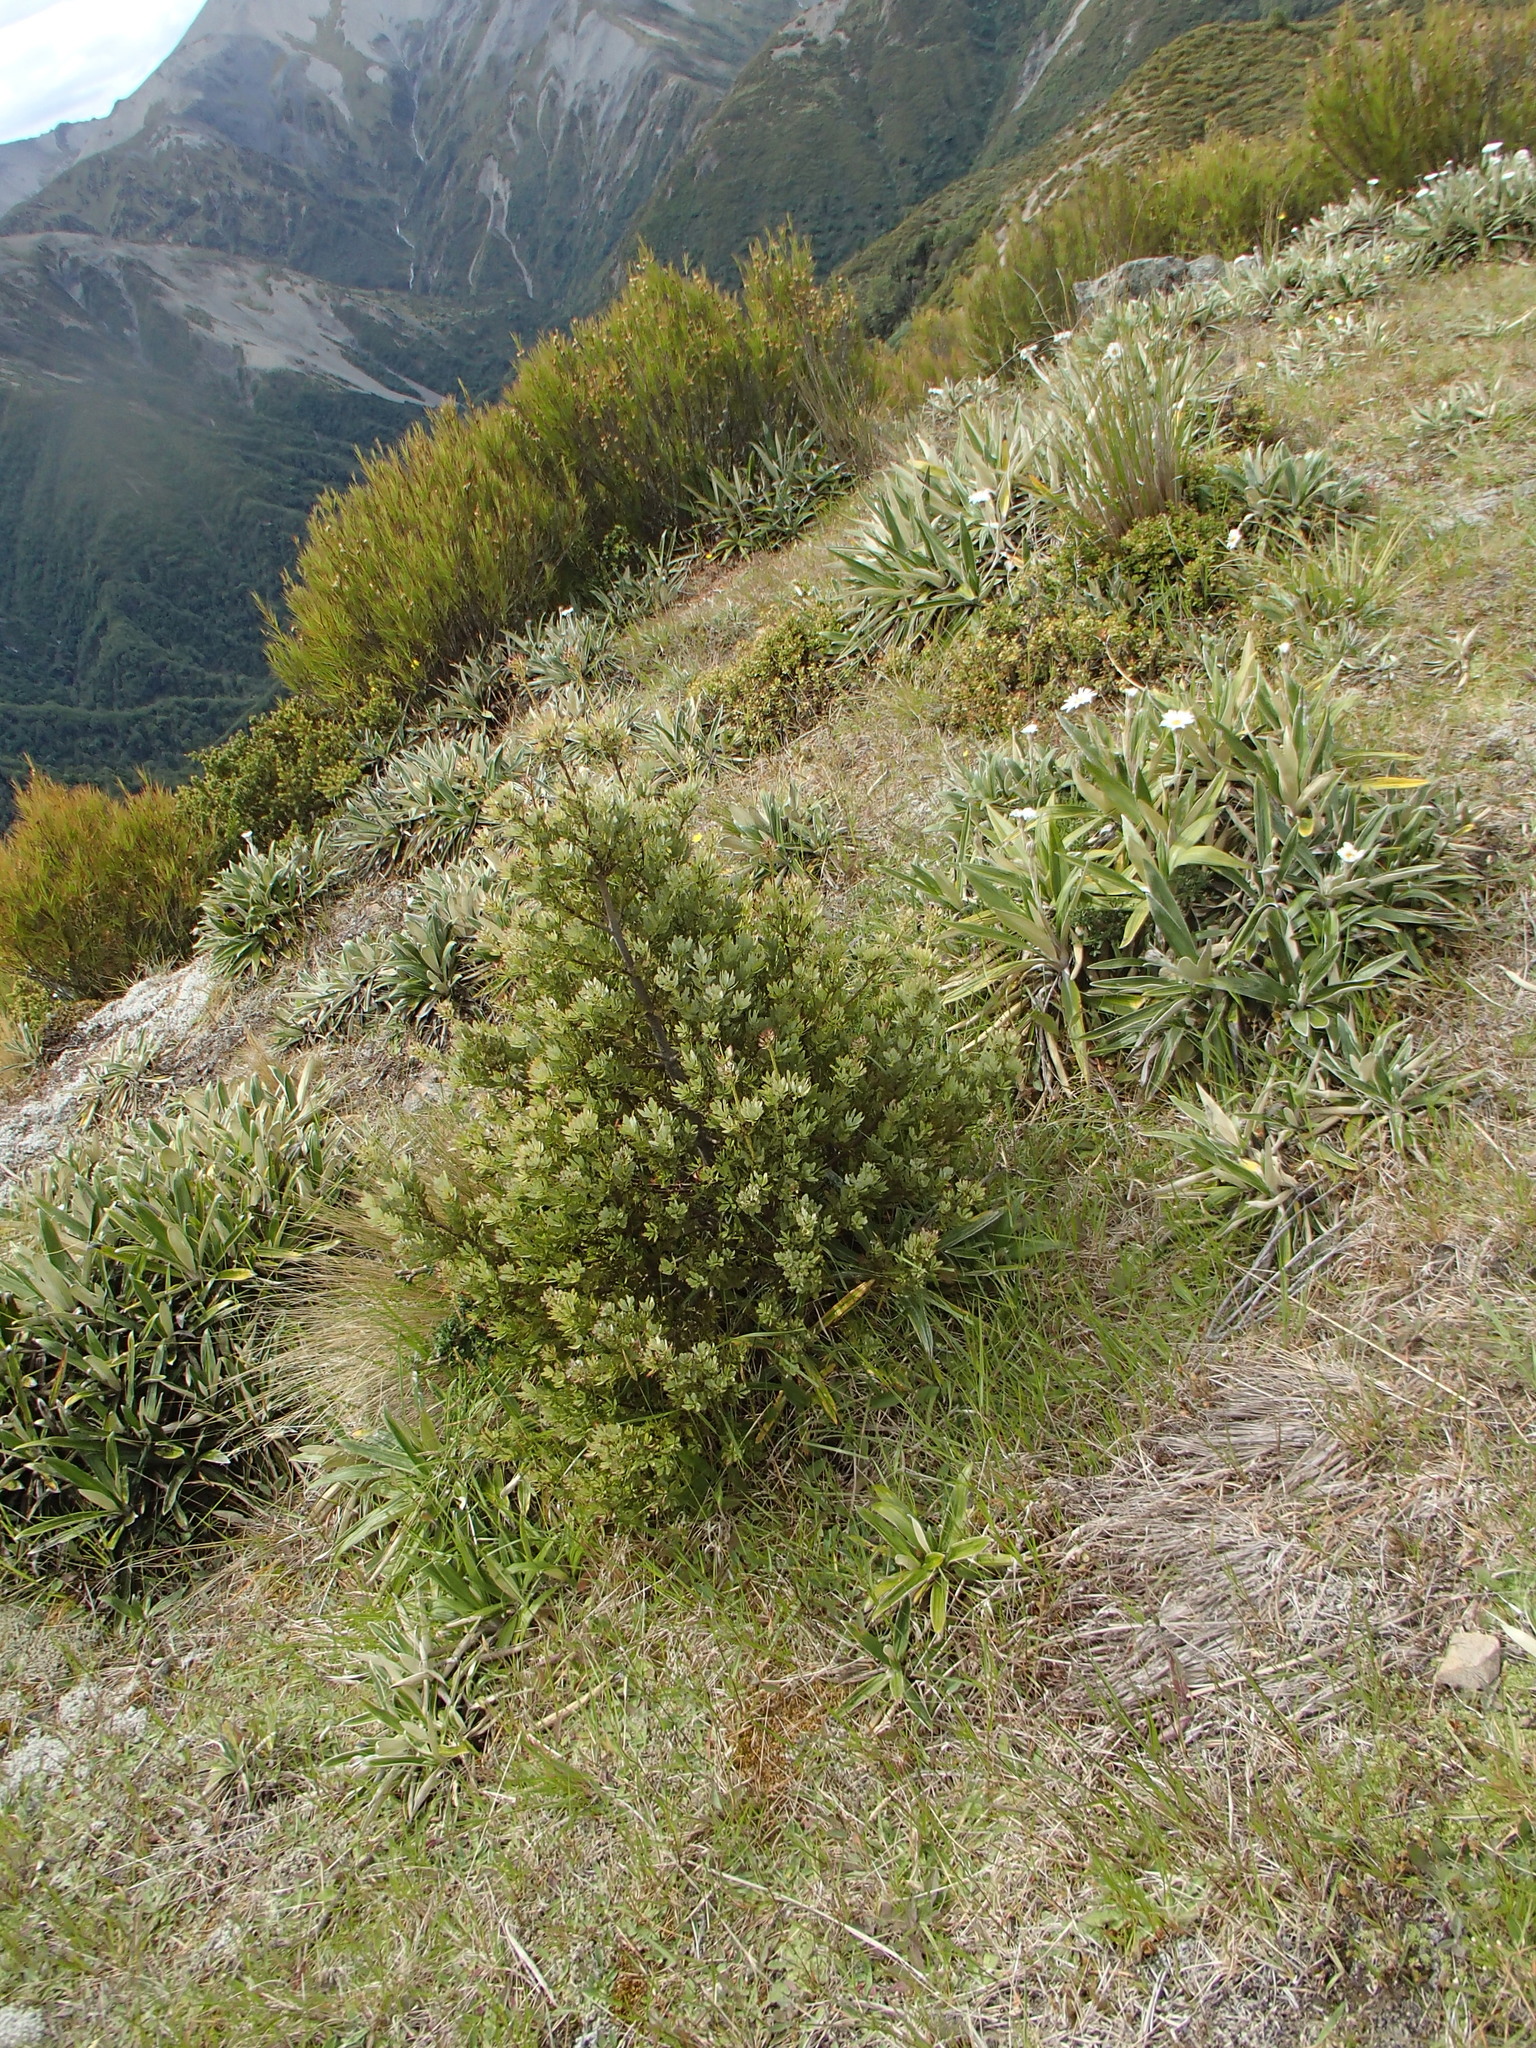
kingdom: Plantae
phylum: Tracheophyta
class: Pinopsida
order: Pinales
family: Phyllocladaceae
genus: Phyllocladus
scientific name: Phyllocladus trichomanoides
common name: Celery pine
